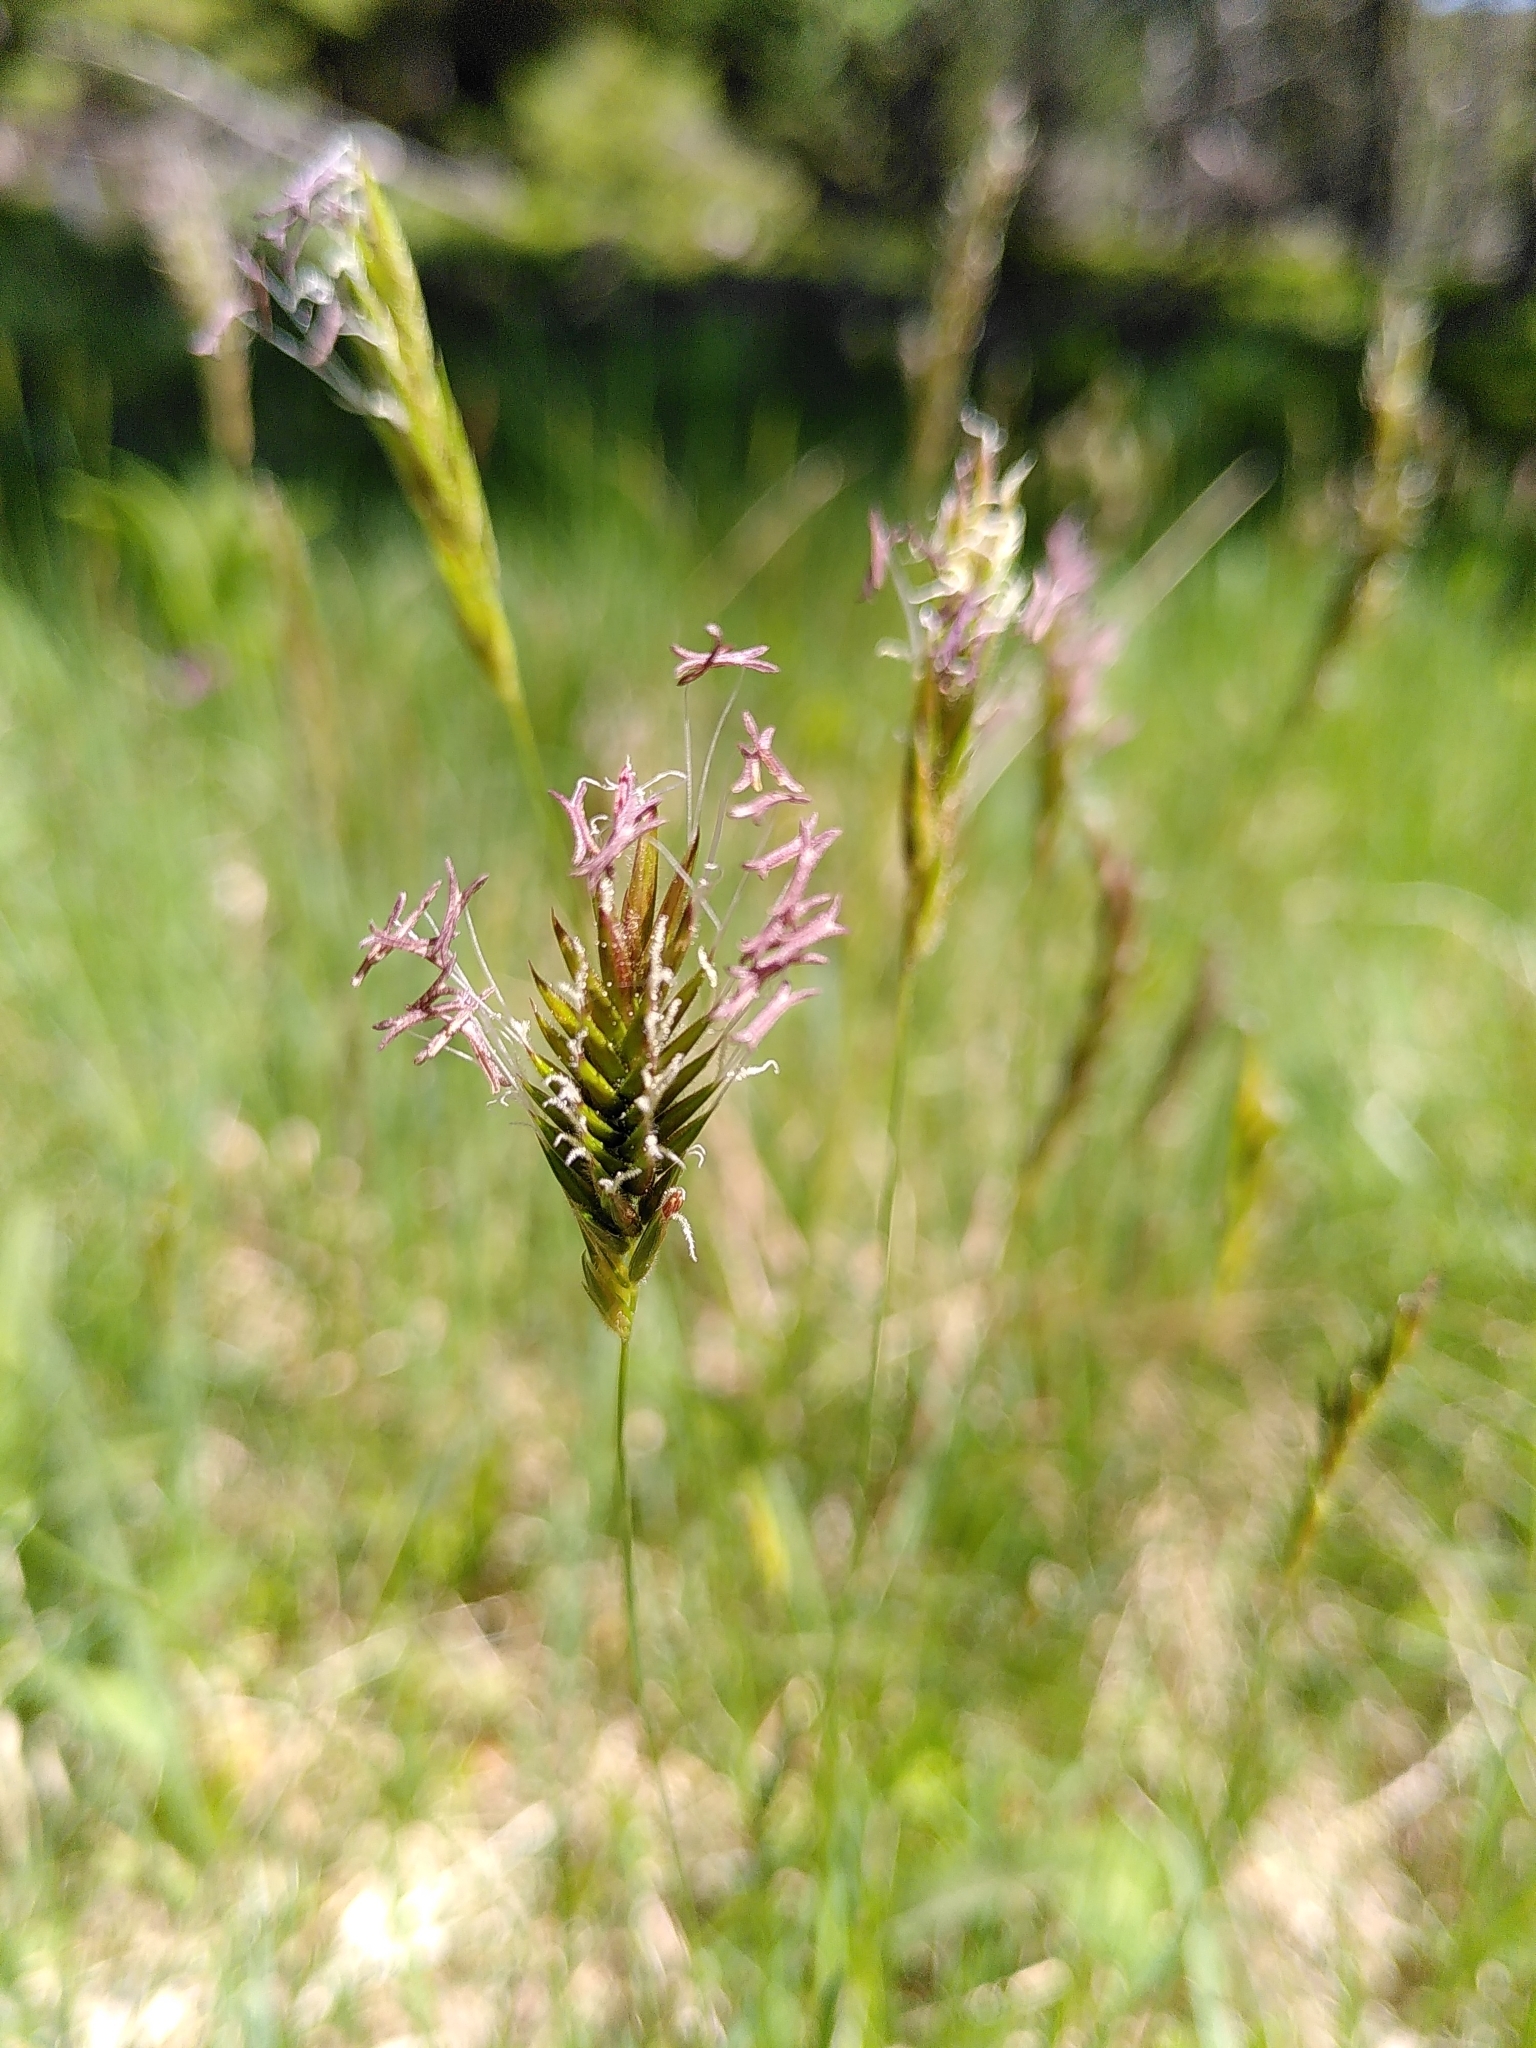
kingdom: Plantae
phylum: Tracheophyta
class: Liliopsida
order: Poales
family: Poaceae
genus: Anthoxanthum
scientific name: Anthoxanthum odoratum
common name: Sweet vernalgrass
